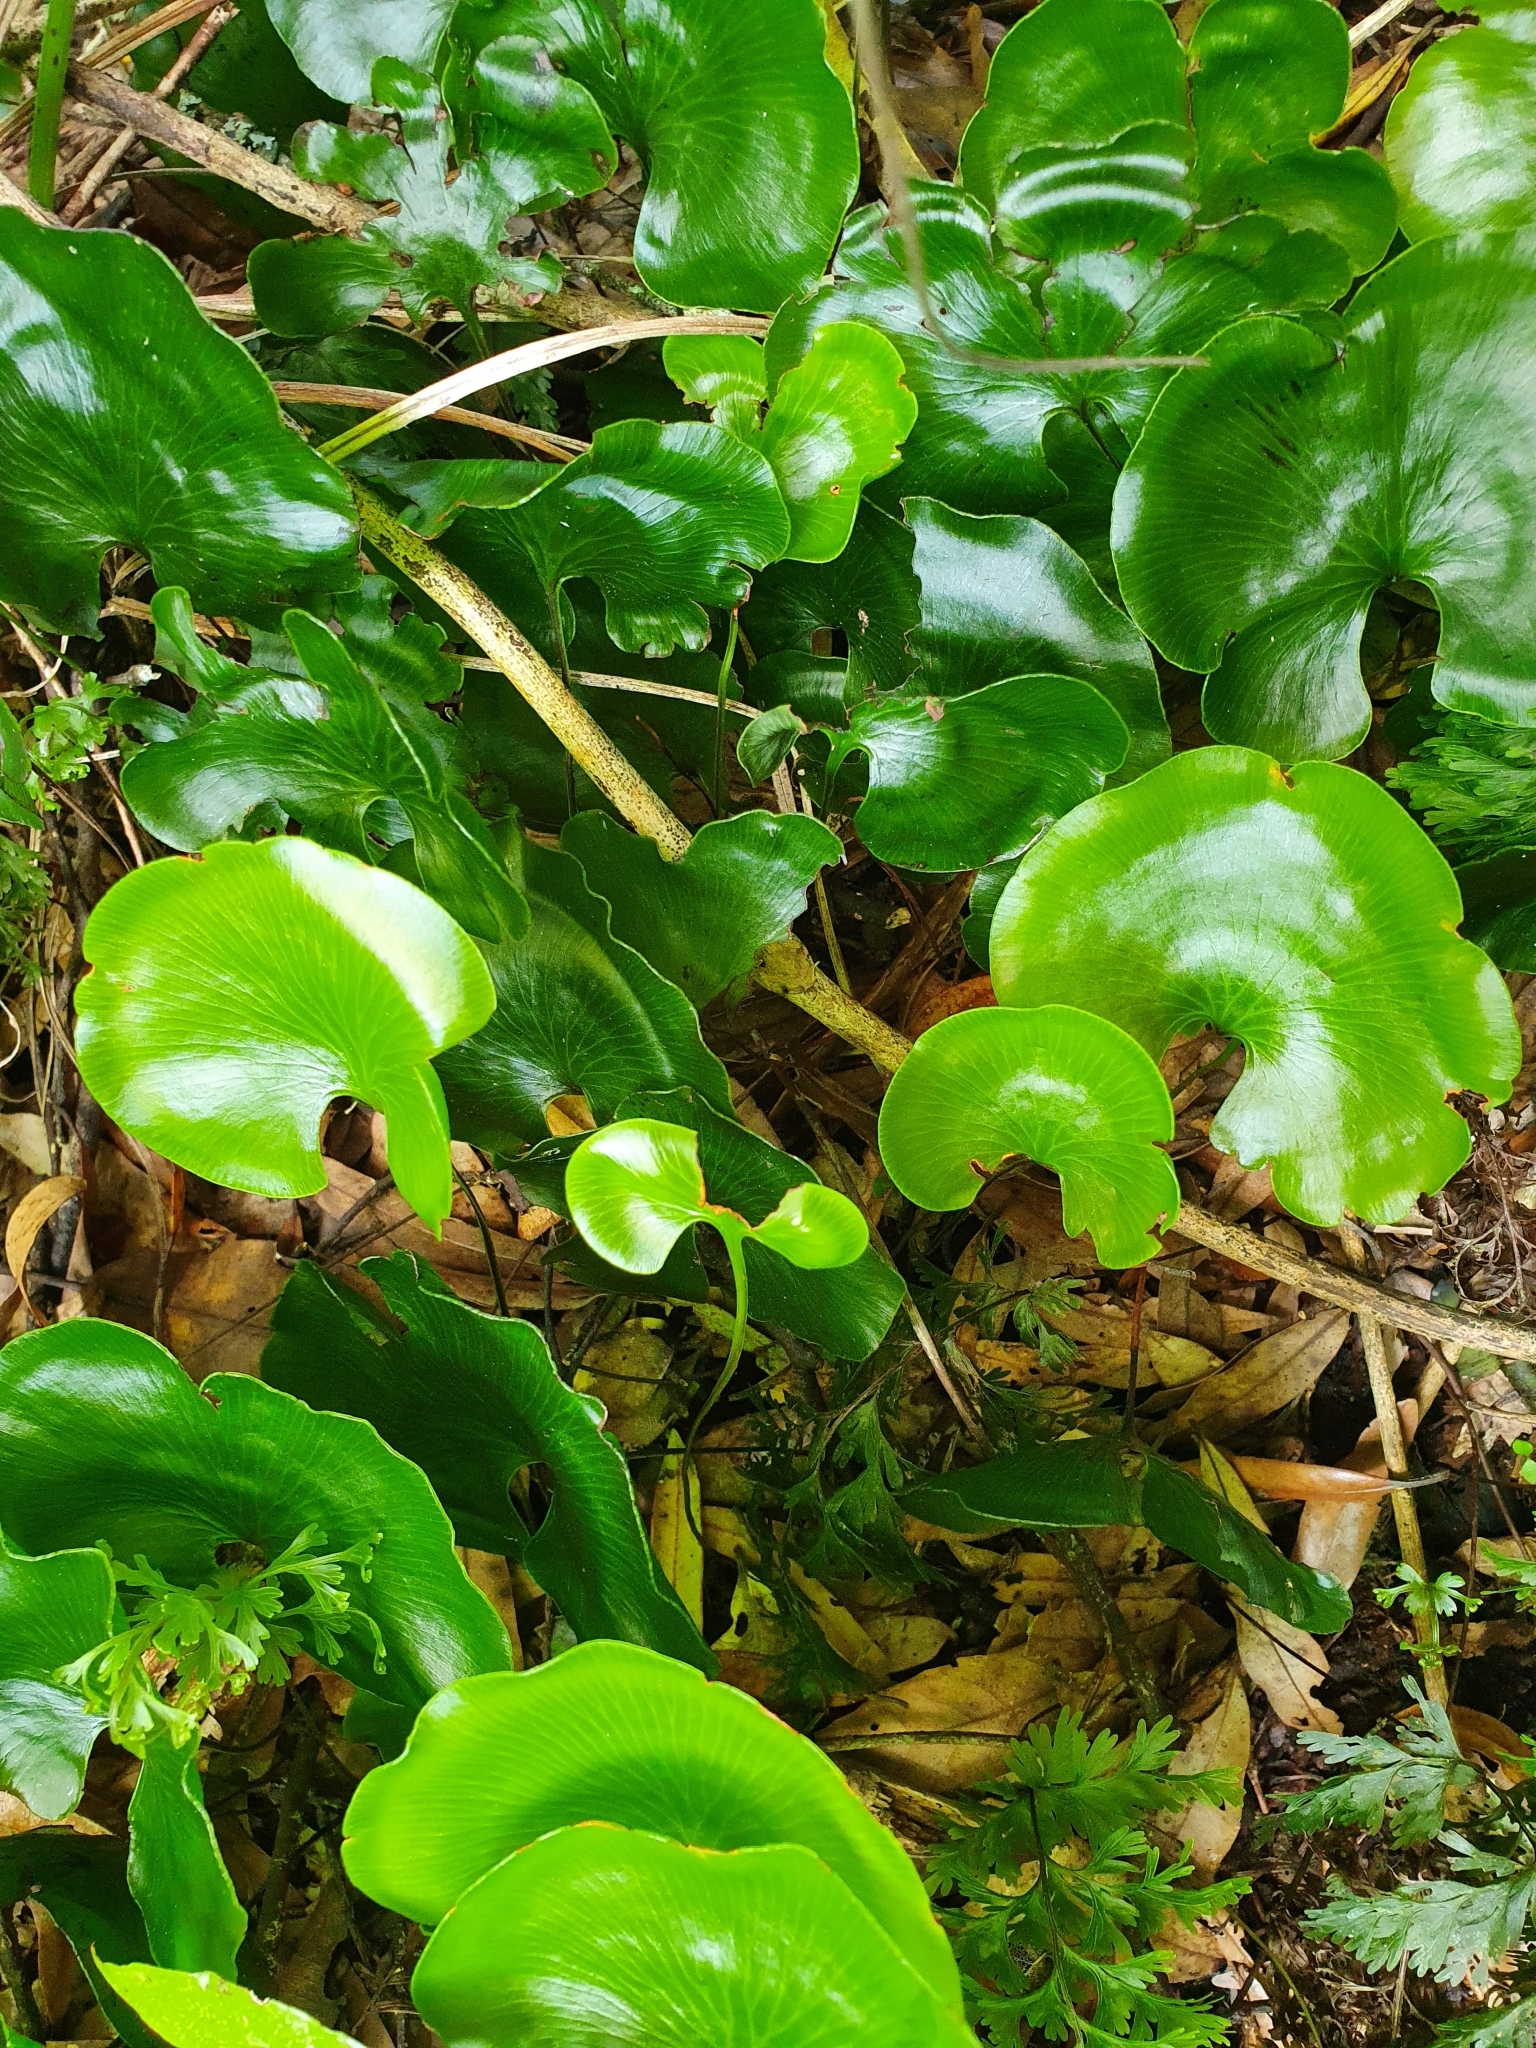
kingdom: Plantae
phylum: Tracheophyta
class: Polypodiopsida
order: Hymenophyllales
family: Hymenophyllaceae
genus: Hymenophyllum
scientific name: Hymenophyllum nephrophyllum
